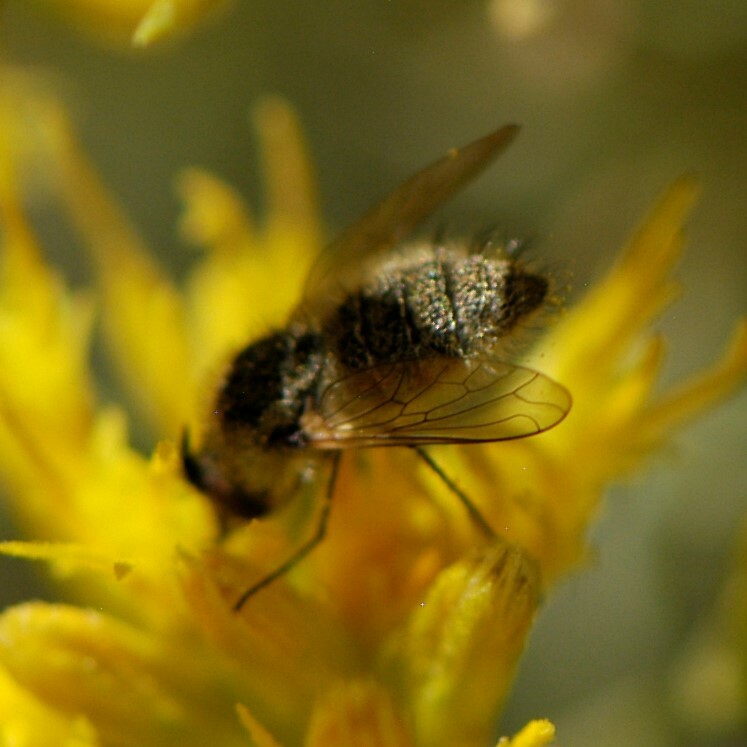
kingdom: Animalia
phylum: Arthropoda
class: Insecta
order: Diptera
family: Bombyliidae
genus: Sparnopolius
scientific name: Sparnopolius coloradensis
